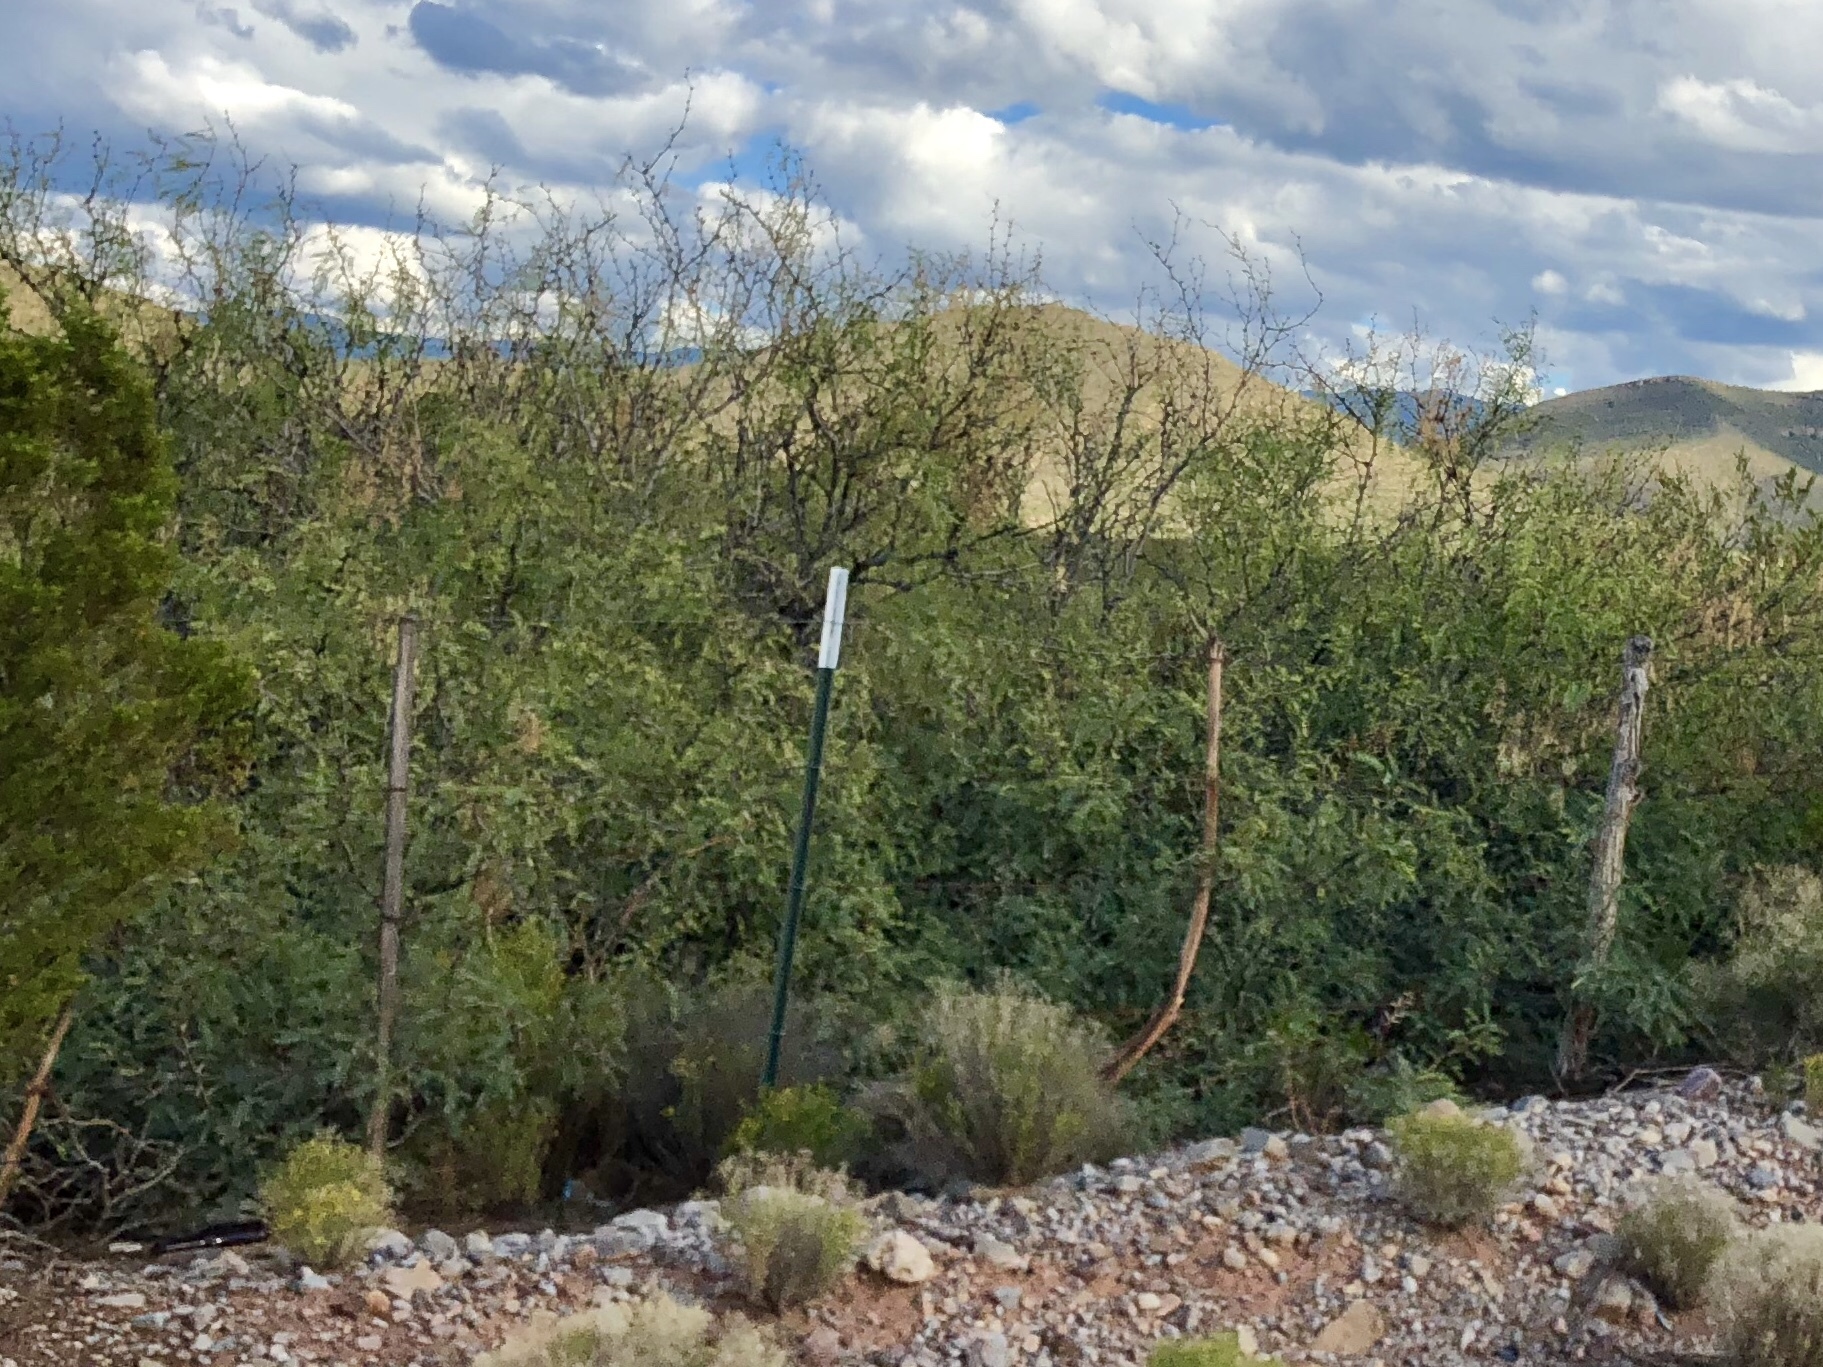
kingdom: Plantae
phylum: Tracheophyta
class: Magnoliopsida
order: Fabales
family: Fabaceae
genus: Prosopis
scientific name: Prosopis glandulosa
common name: Honey mesquite
